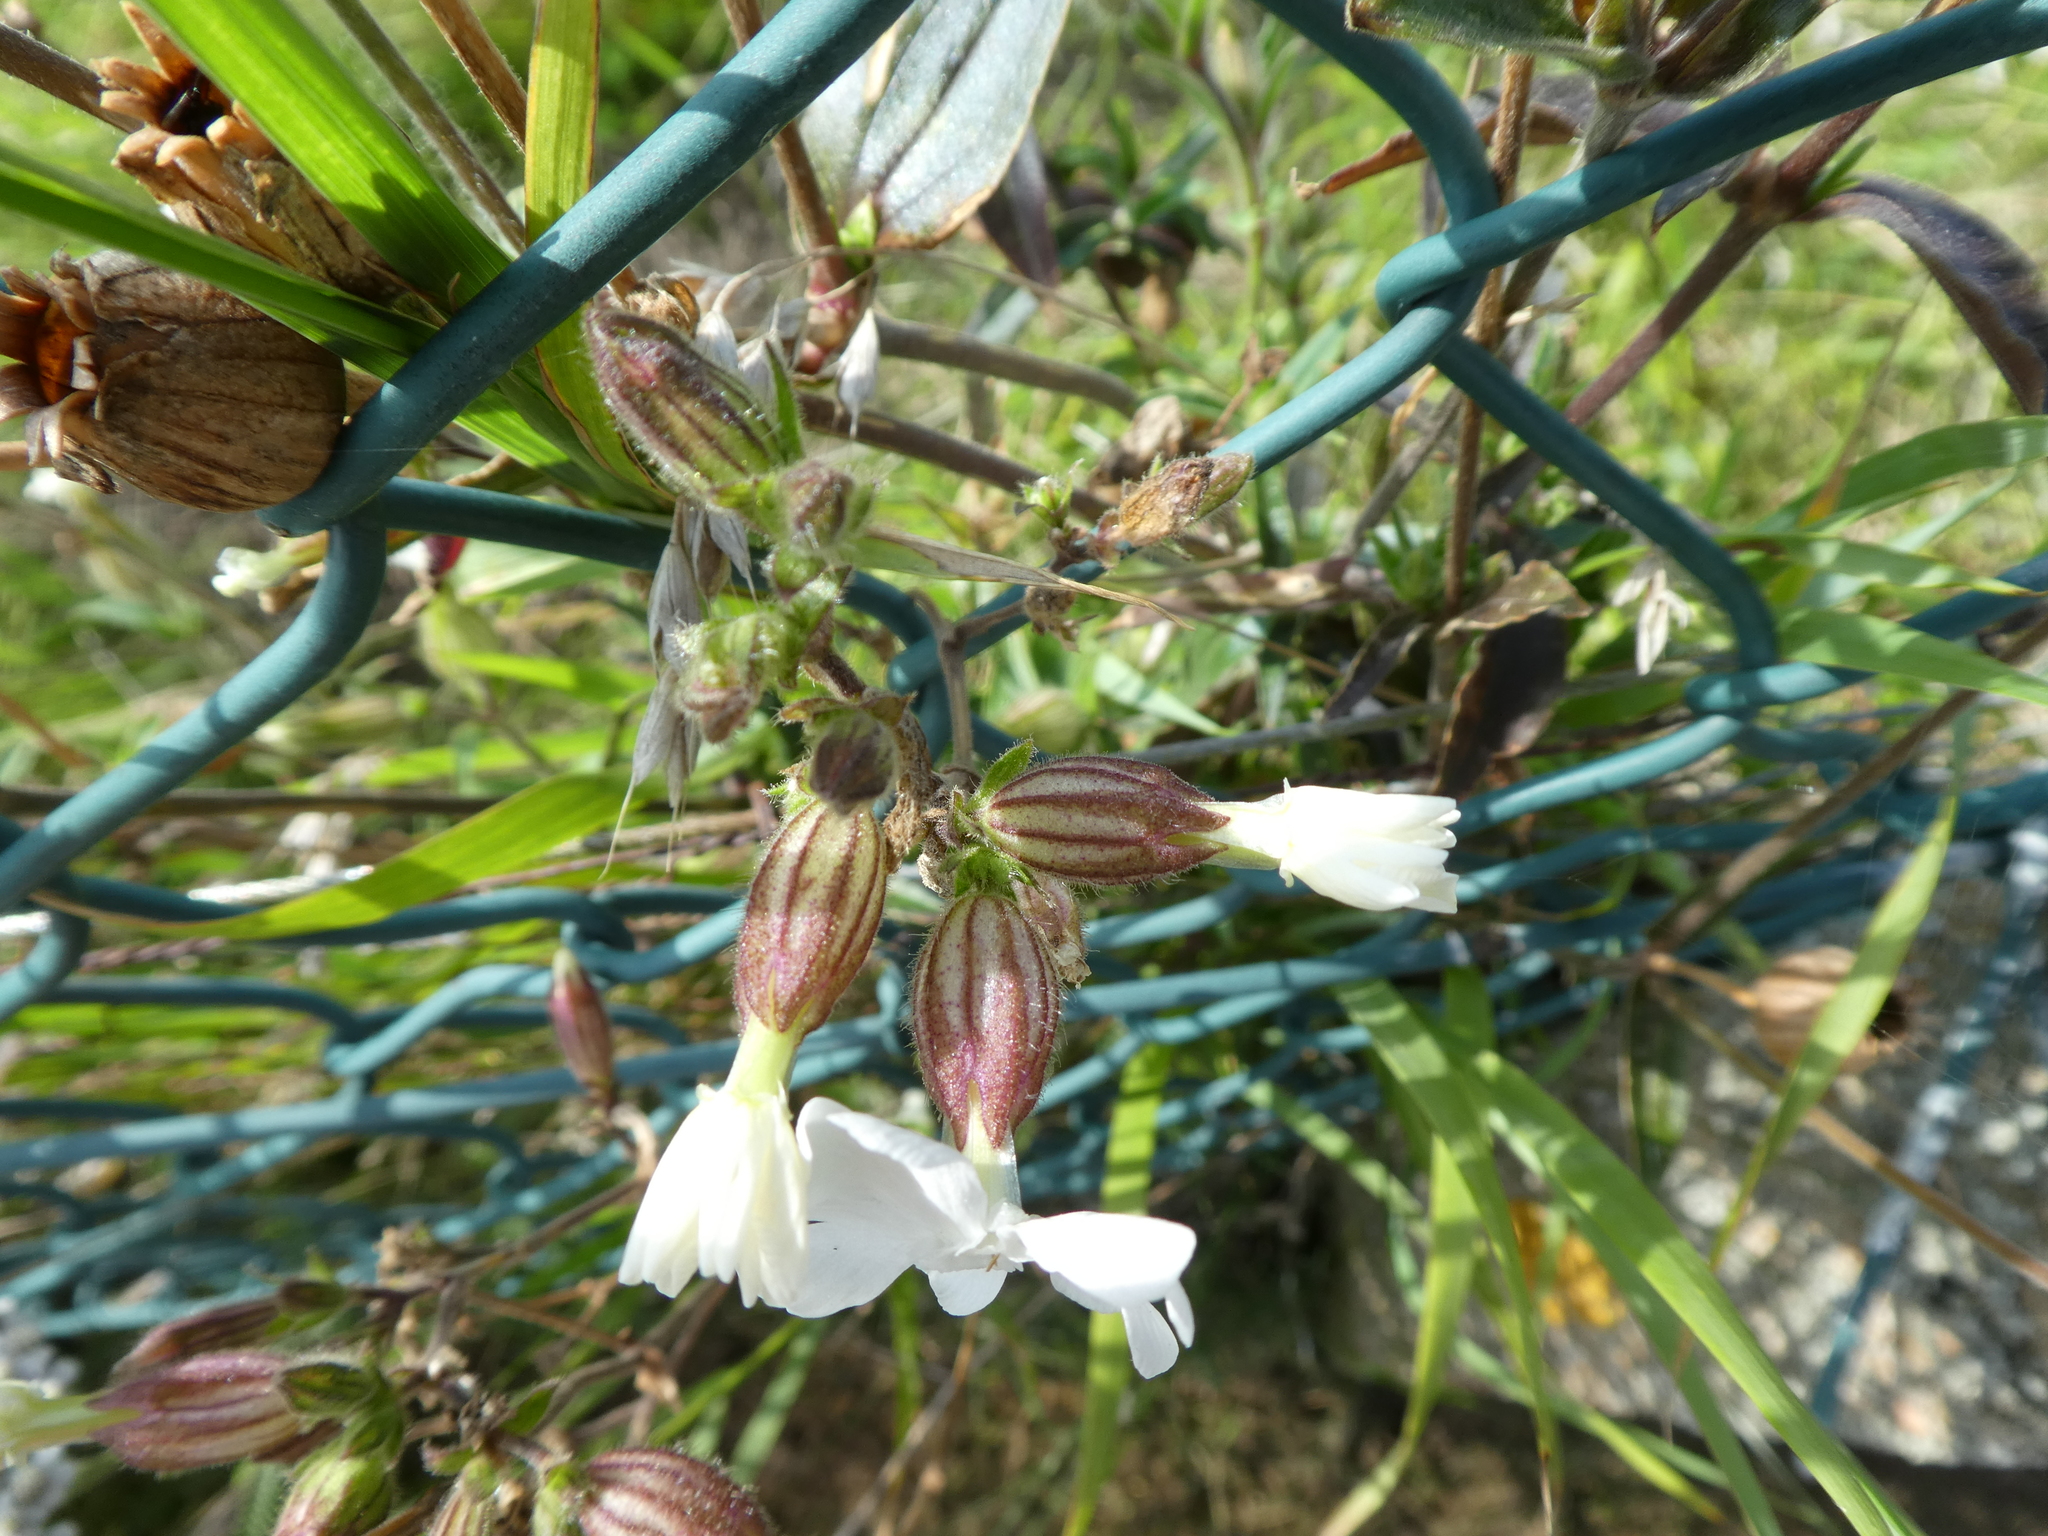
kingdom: Plantae
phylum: Tracheophyta
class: Magnoliopsida
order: Caryophyllales
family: Caryophyllaceae
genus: Silene
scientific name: Silene latifolia
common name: White campion
